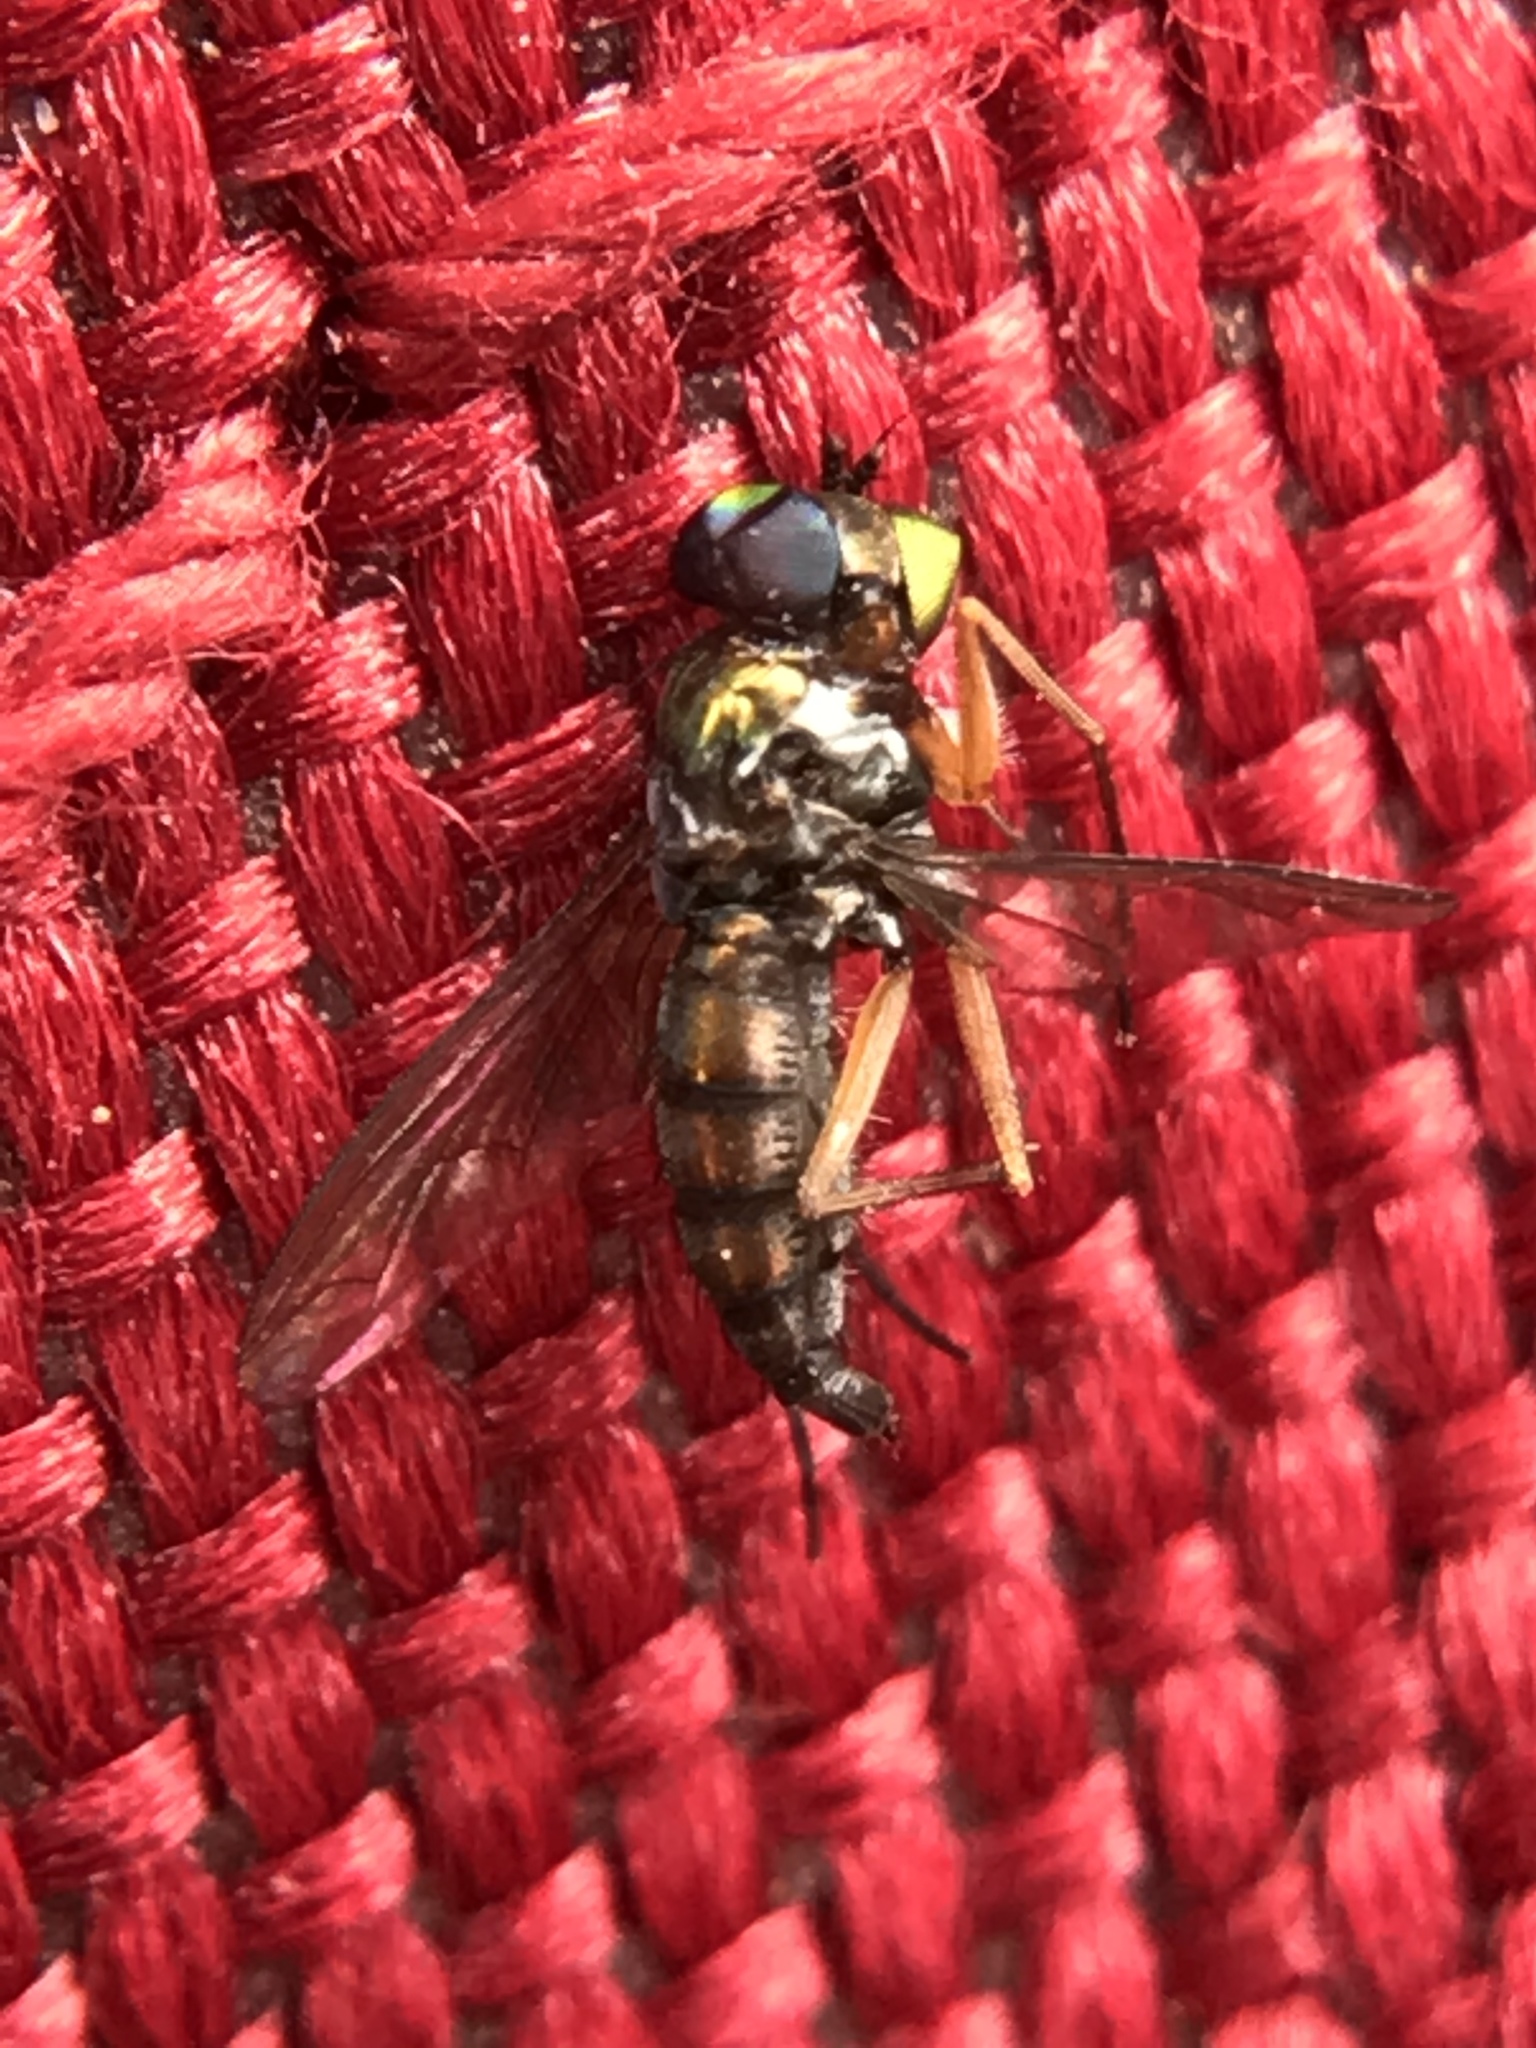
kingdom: Animalia
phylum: Arthropoda
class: Insecta
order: Diptera
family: Dolichopodidae
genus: Condylostylus
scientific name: Condylostylus
